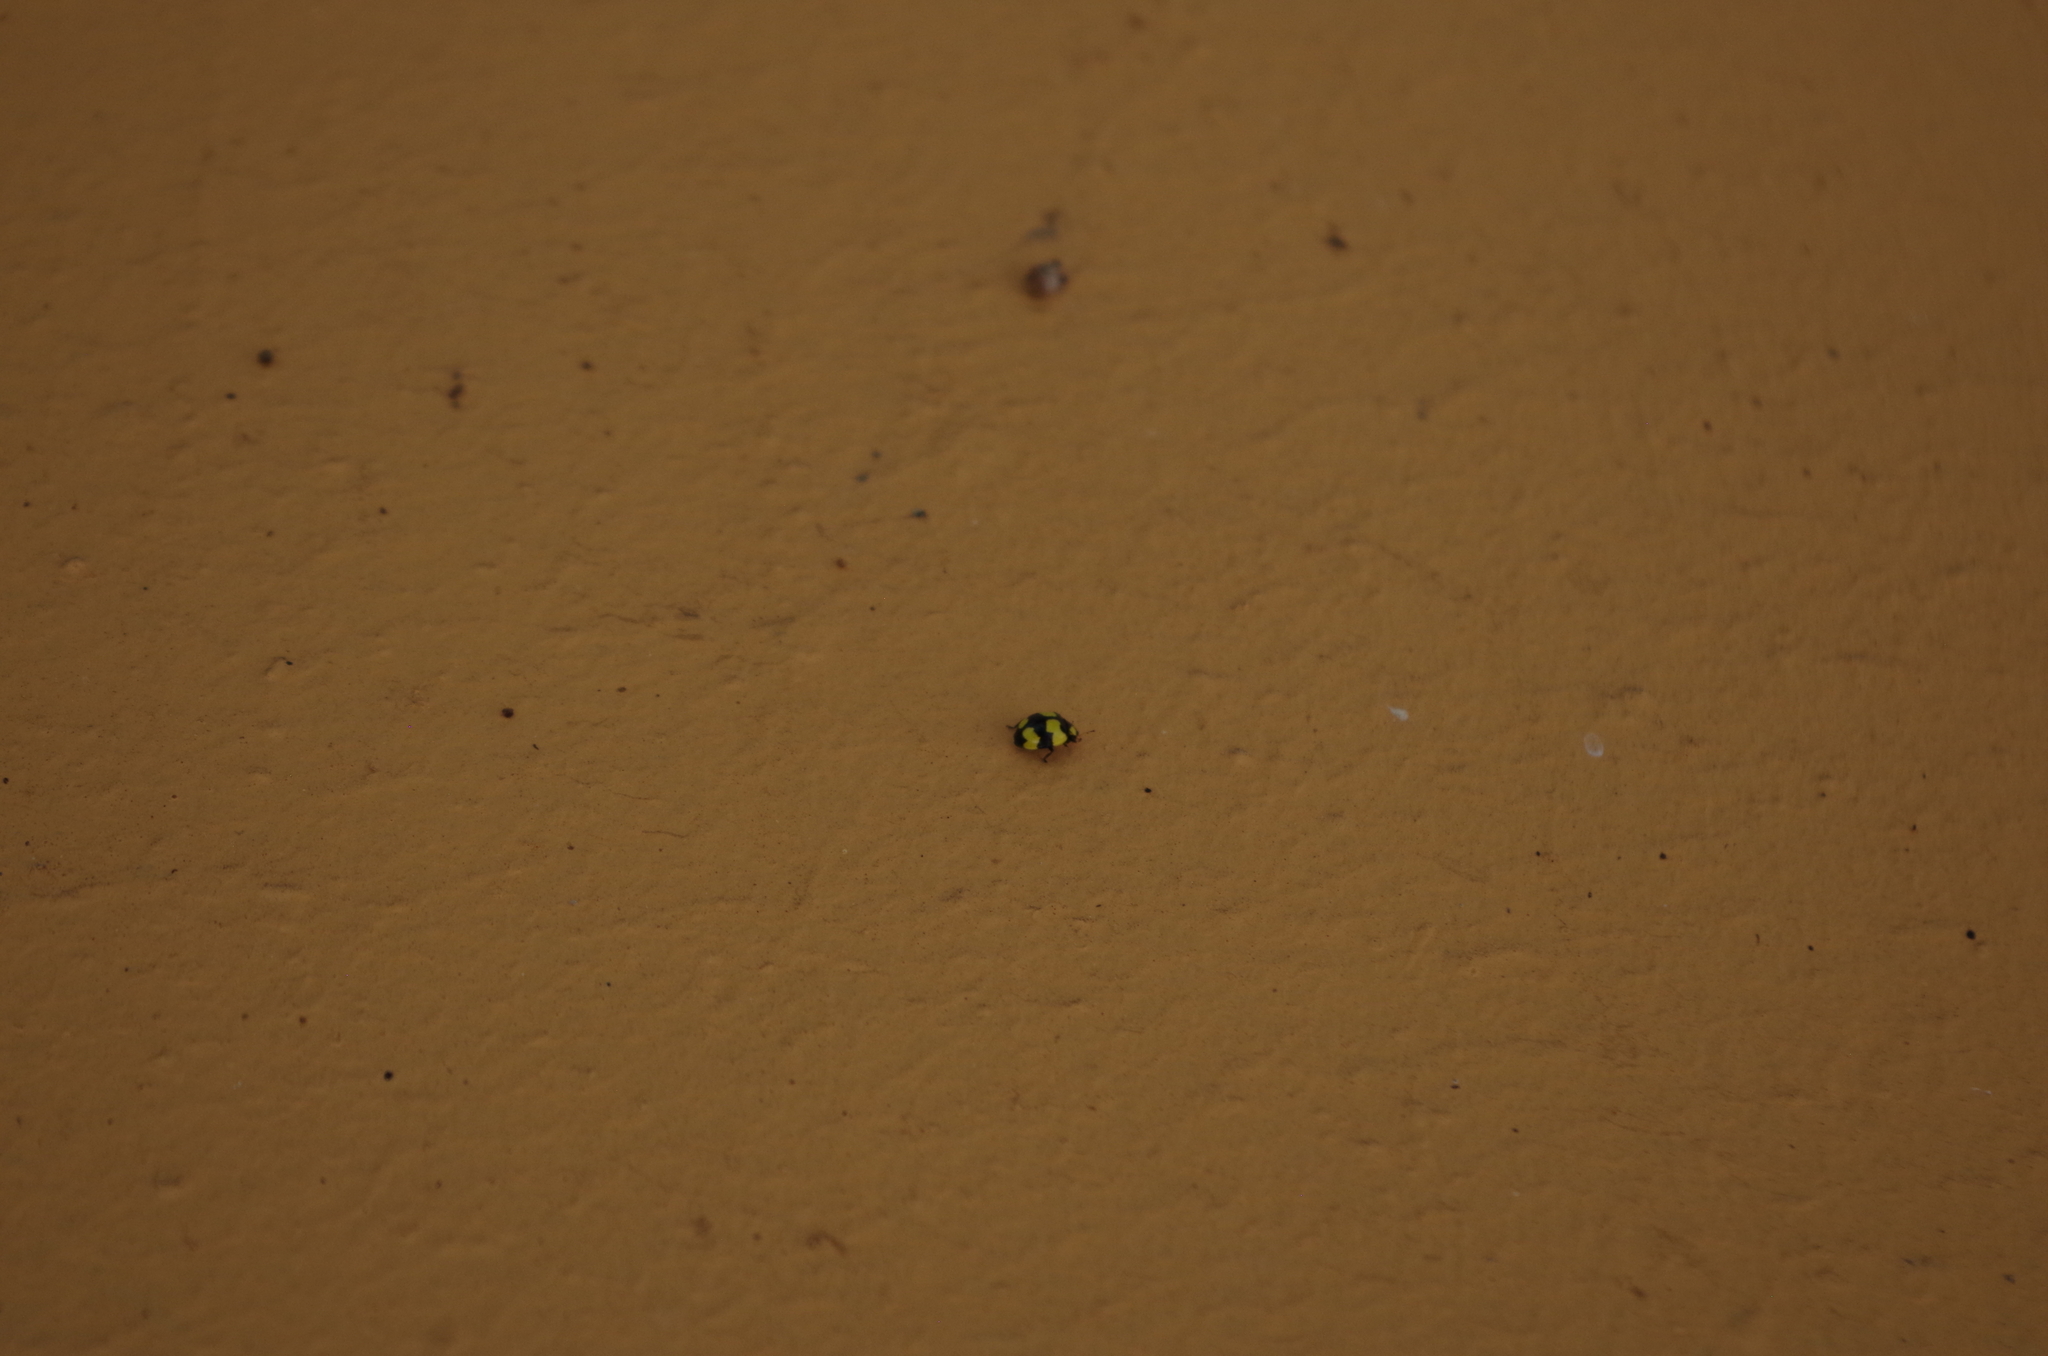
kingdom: Animalia
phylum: Arthropoda
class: Insecta
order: Coleoptera
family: Coccinellidae
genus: Illeis
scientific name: Illeis galbula
